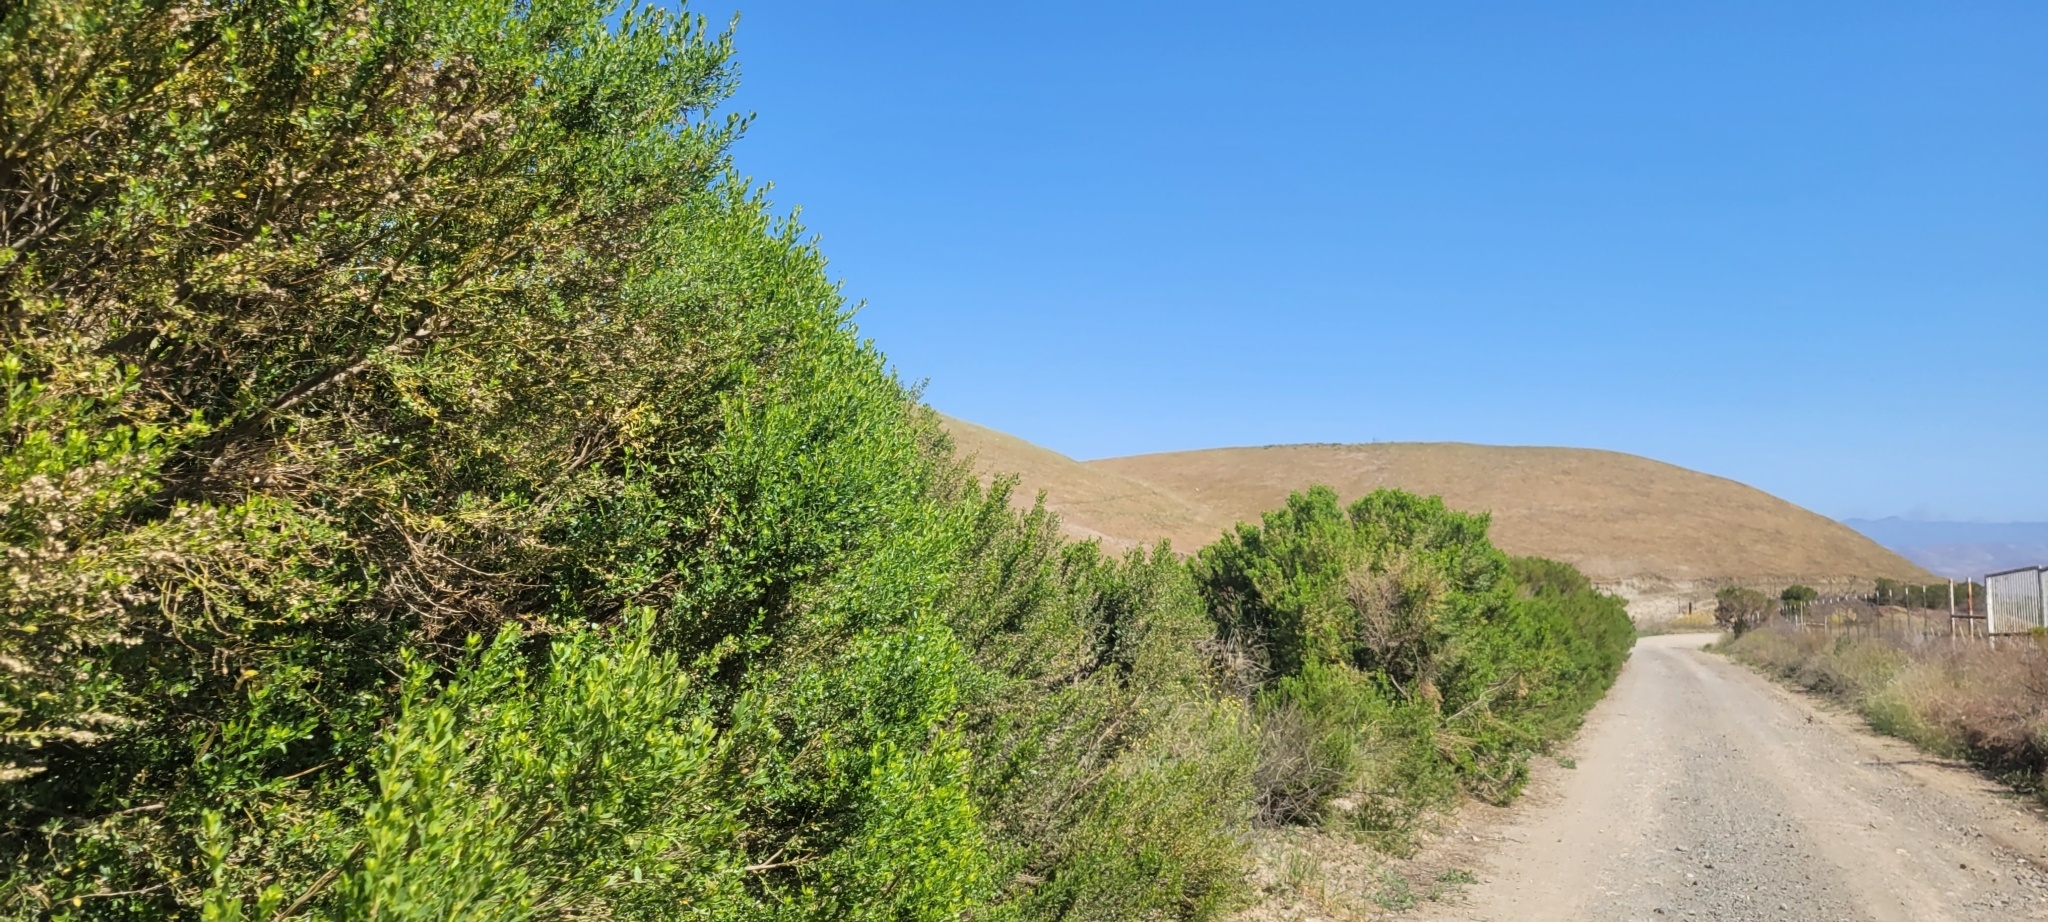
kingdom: Plantae
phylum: Tracheophyta
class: Magnoliopsida
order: Asterales
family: Asteraceae
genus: Baccharis
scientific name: Baccharis pilularis
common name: Coyotebrush
